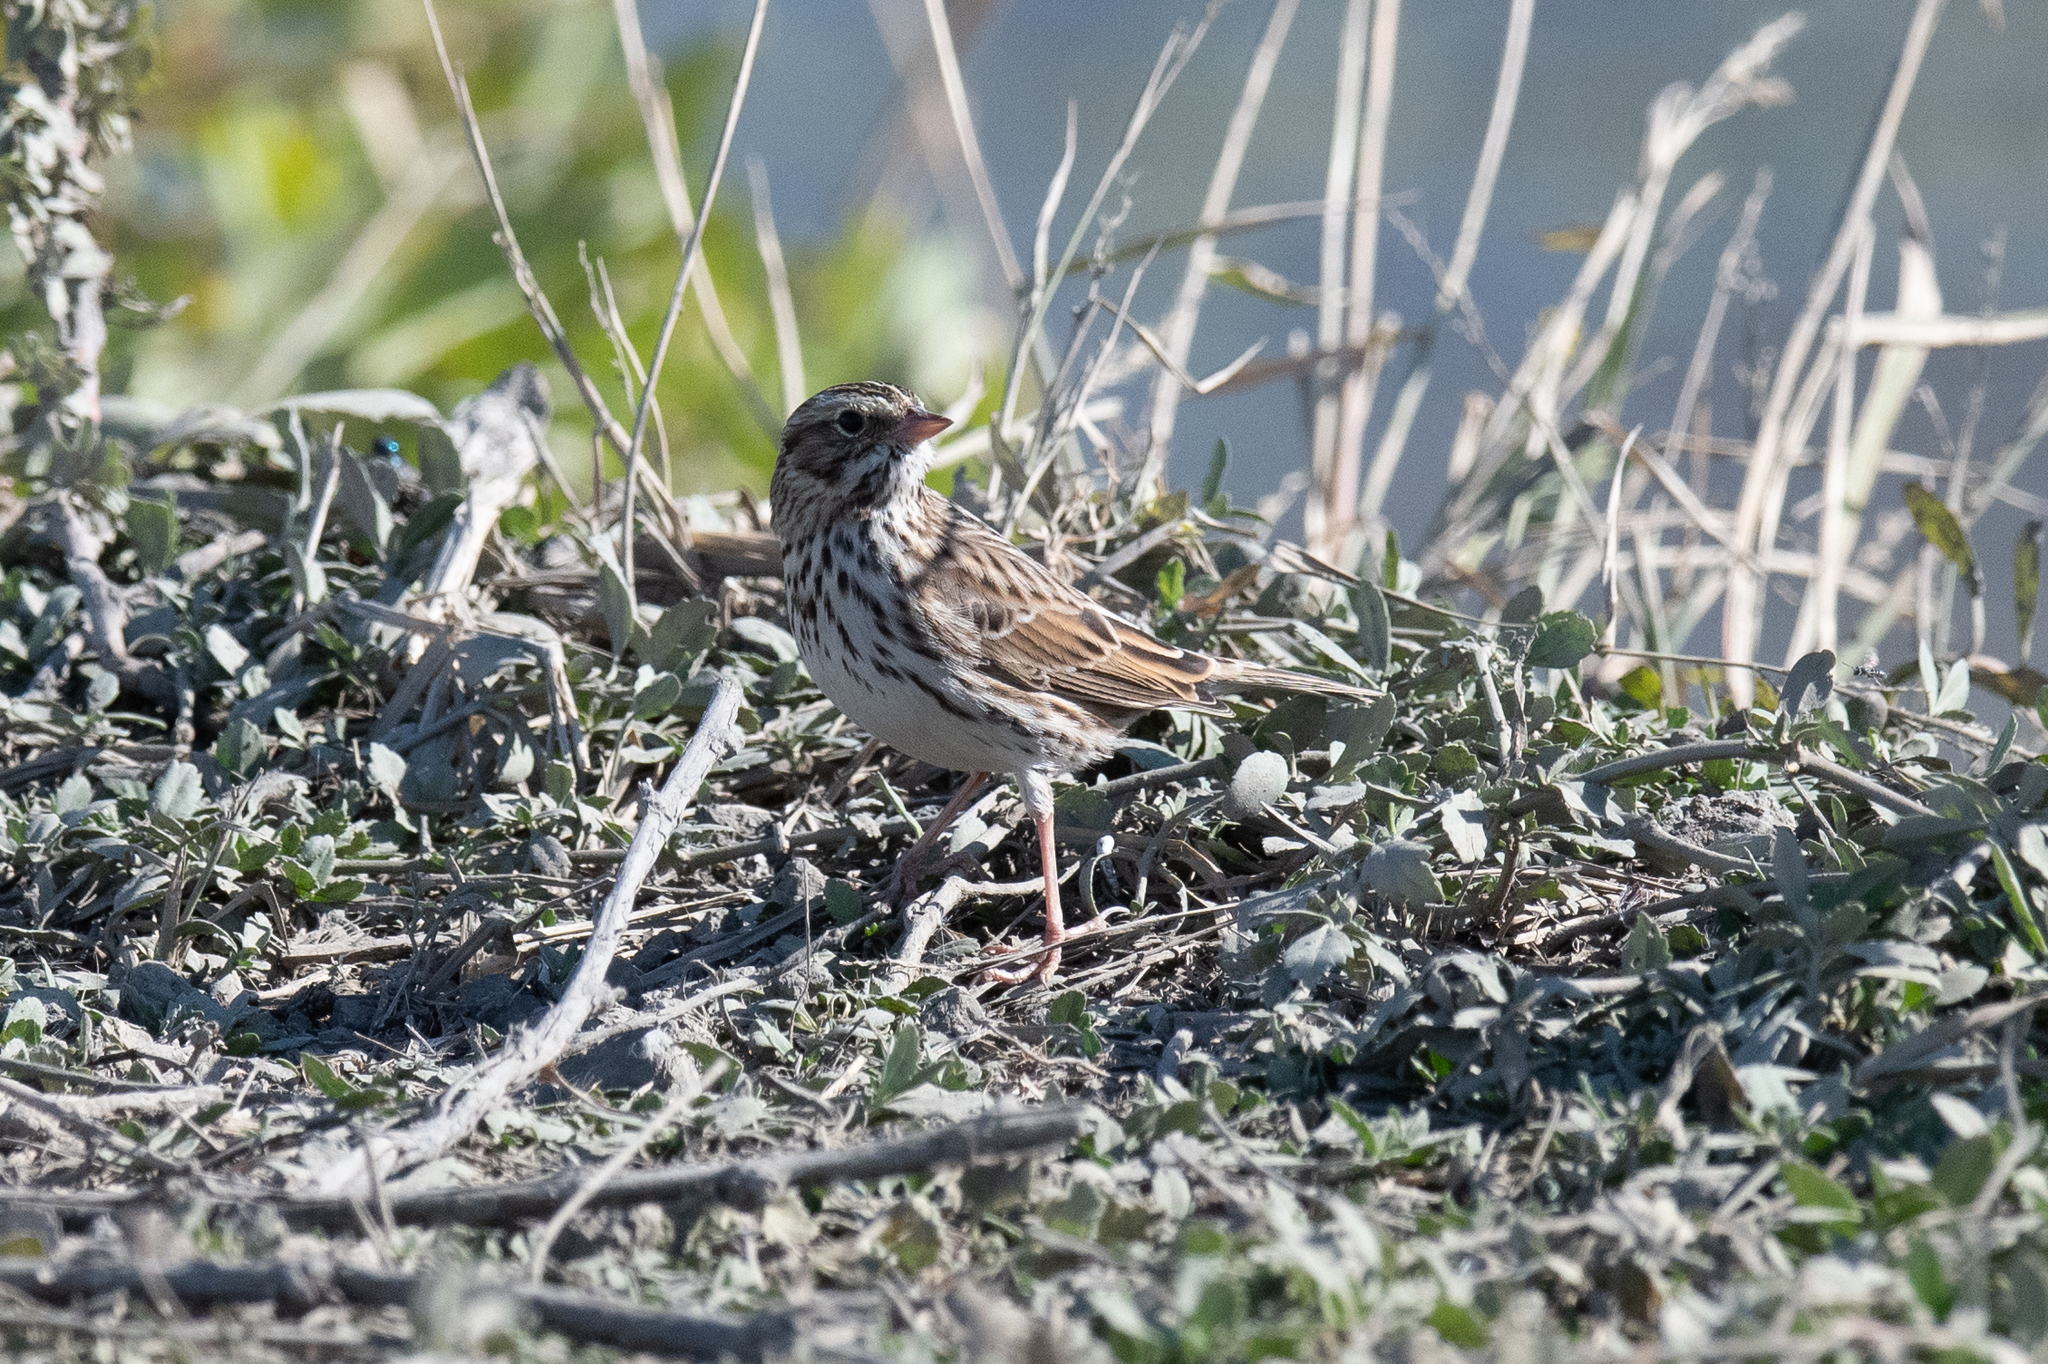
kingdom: Animalia
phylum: Chordata
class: Aves
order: Passeriformes
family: Passerellidae
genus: Passerculus
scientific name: Passerculus sandwichensis
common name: Savannah sparrow
